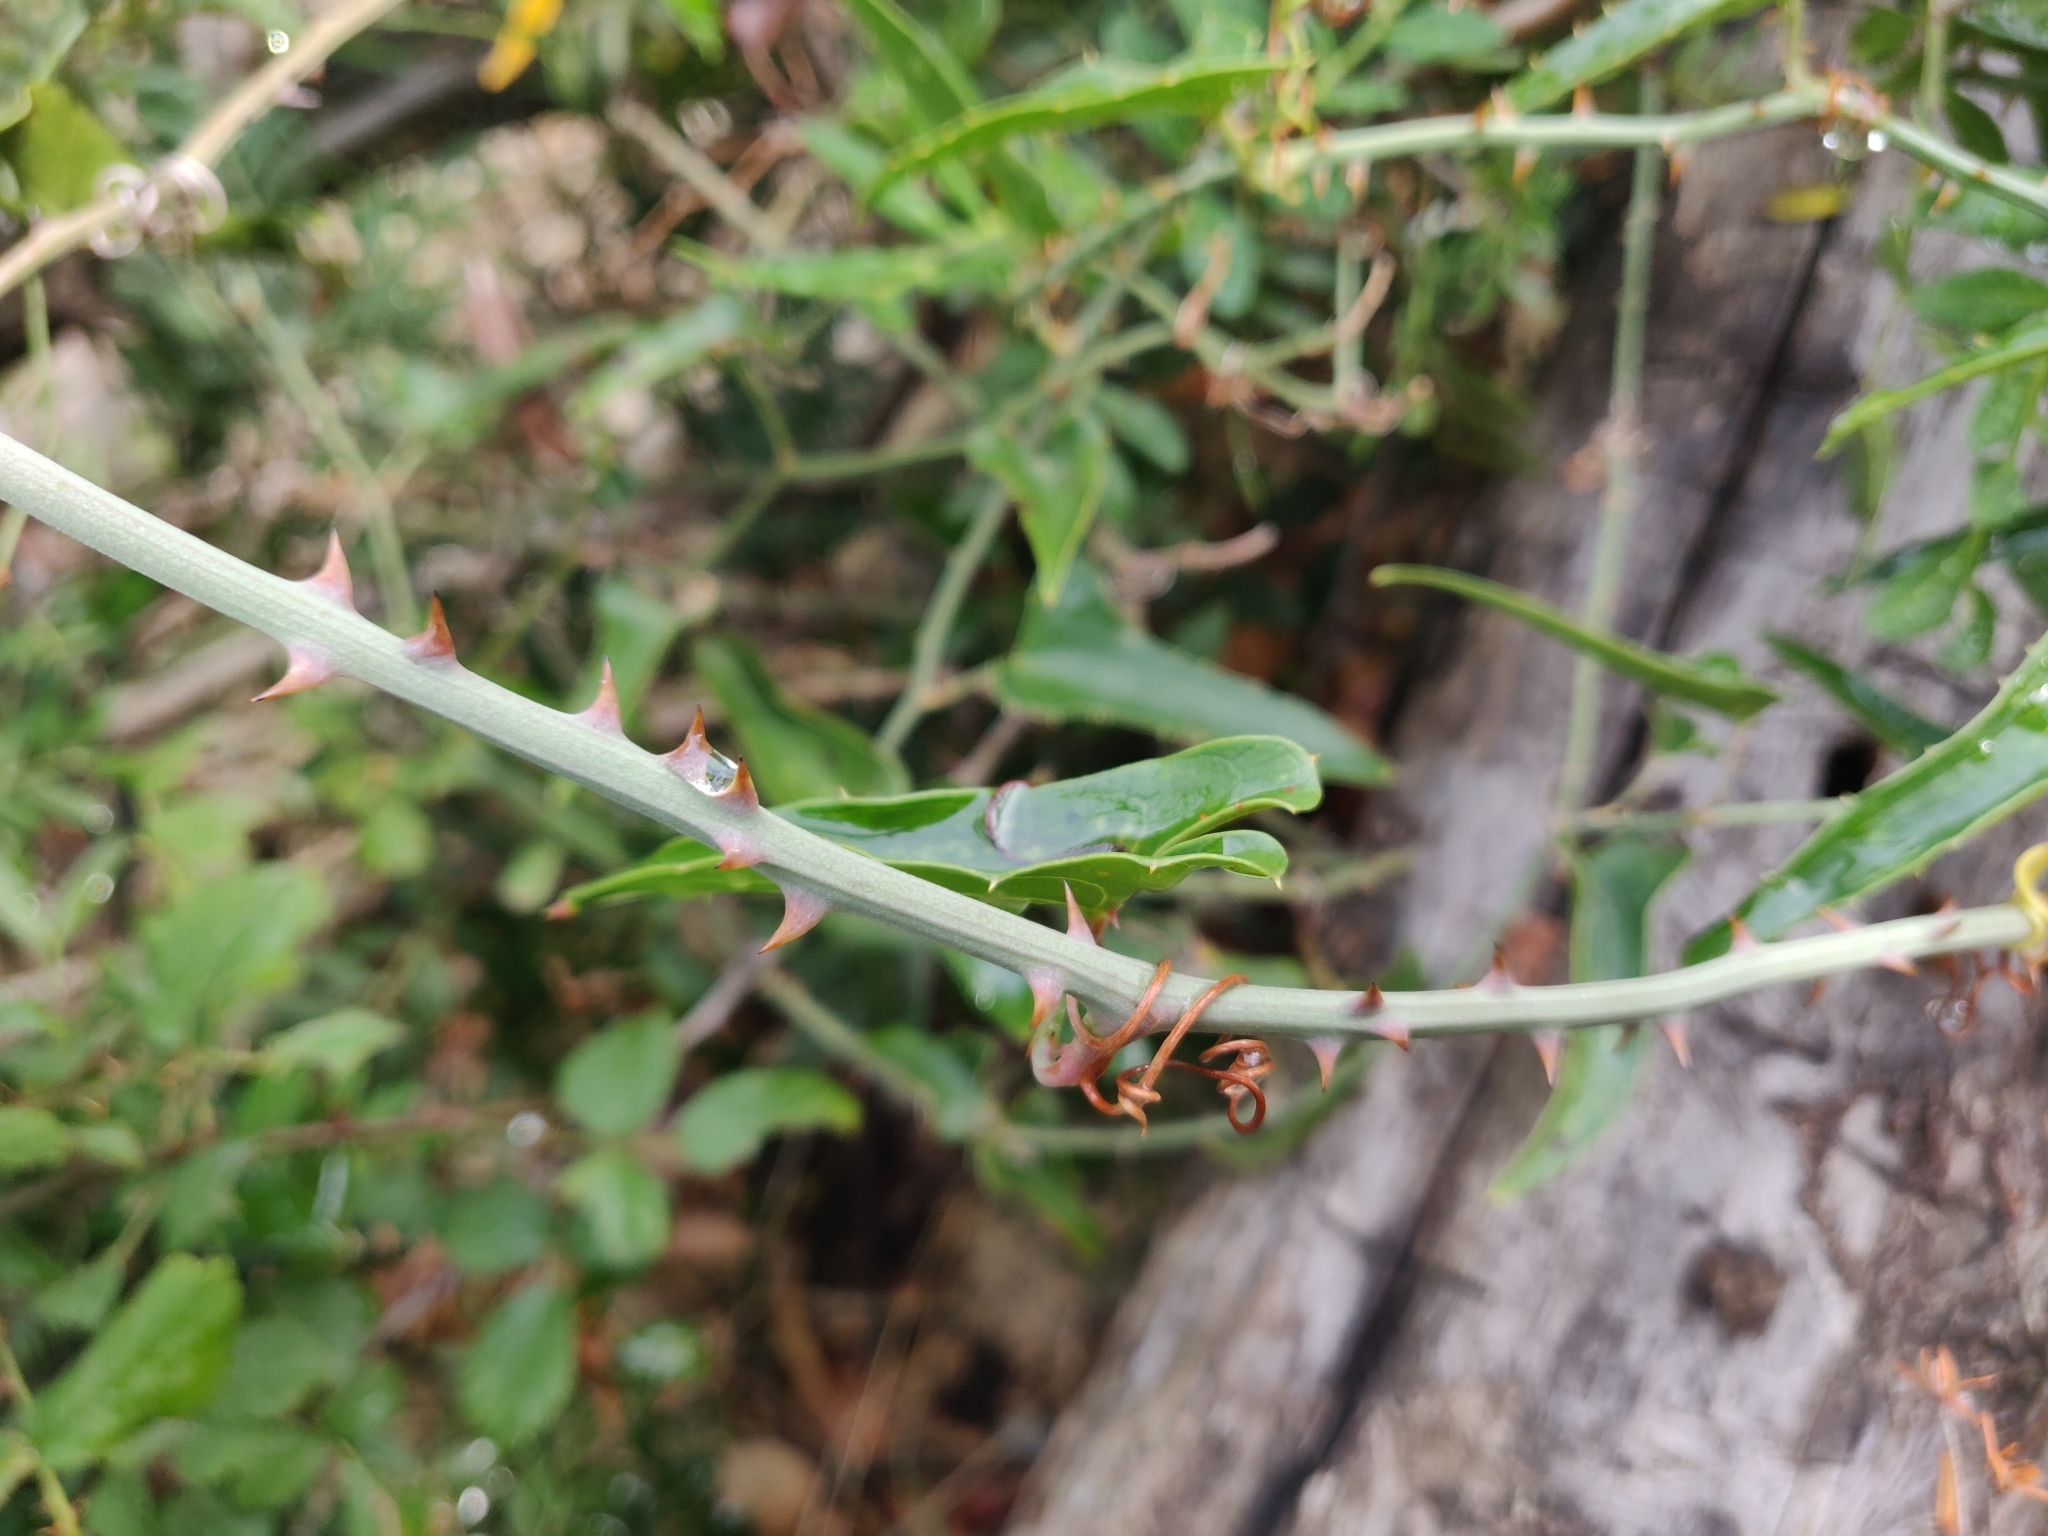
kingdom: Plantae
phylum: Tracheophyta
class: Liliopsida
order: Liliales
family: Smilacaceae
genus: Smilax
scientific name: Smilax aspera
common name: Common smilax
